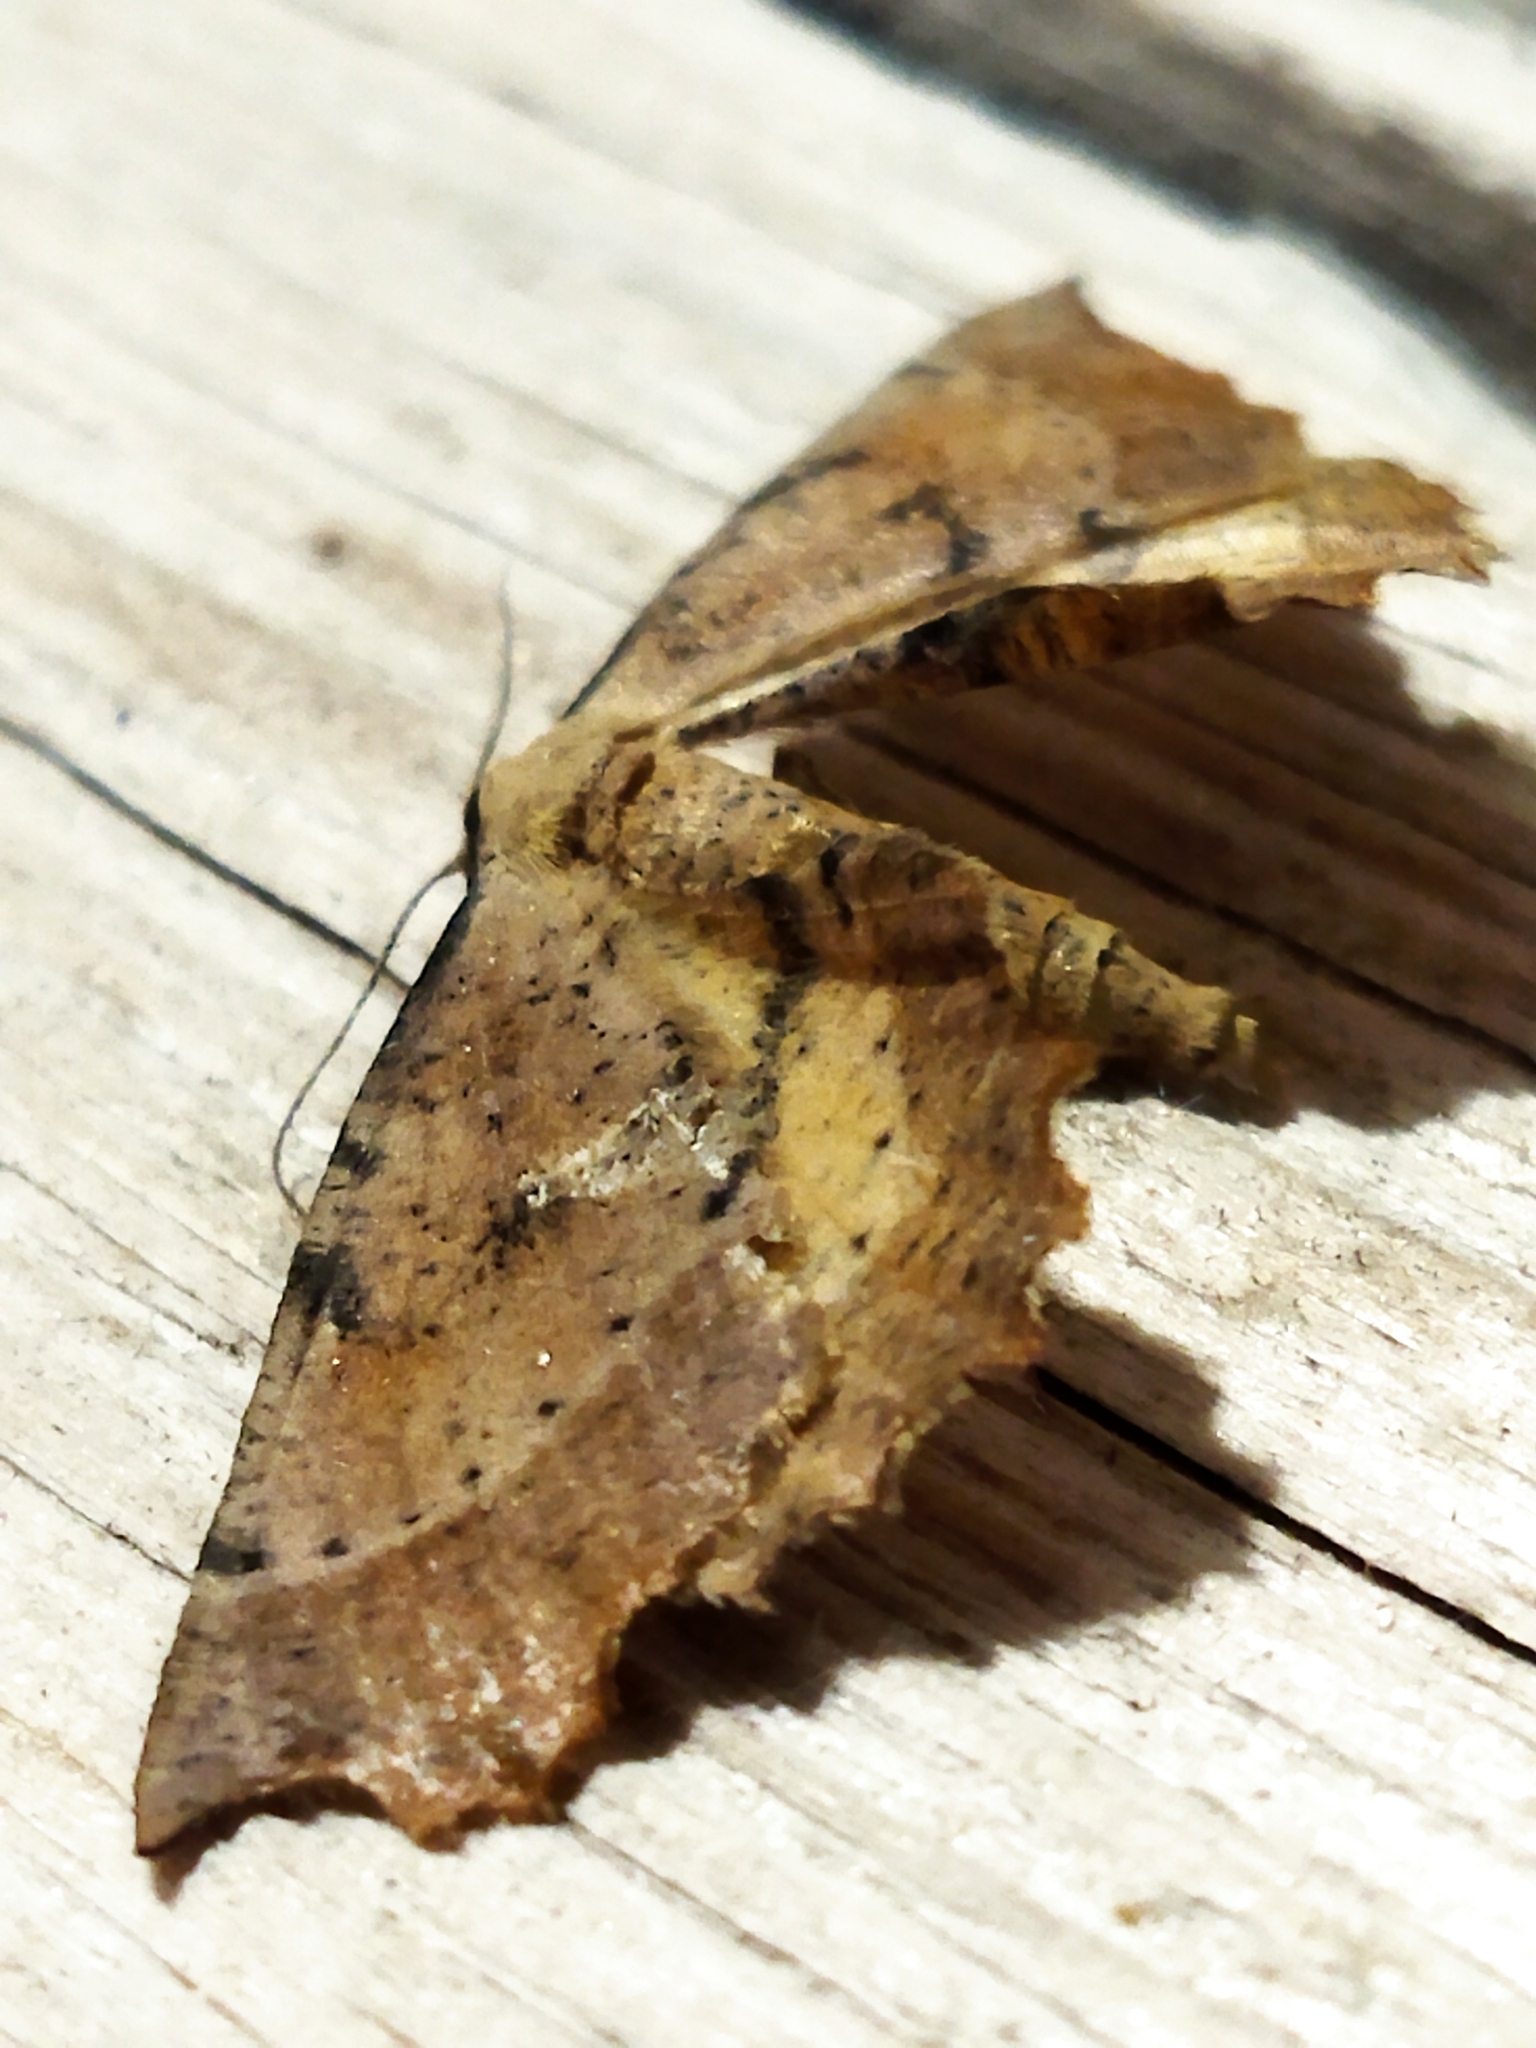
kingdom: Animalia
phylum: Arthropoda
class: Insecta
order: Lepidoptera
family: Geometridae
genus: Artiora
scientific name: Artiora evonymaria
